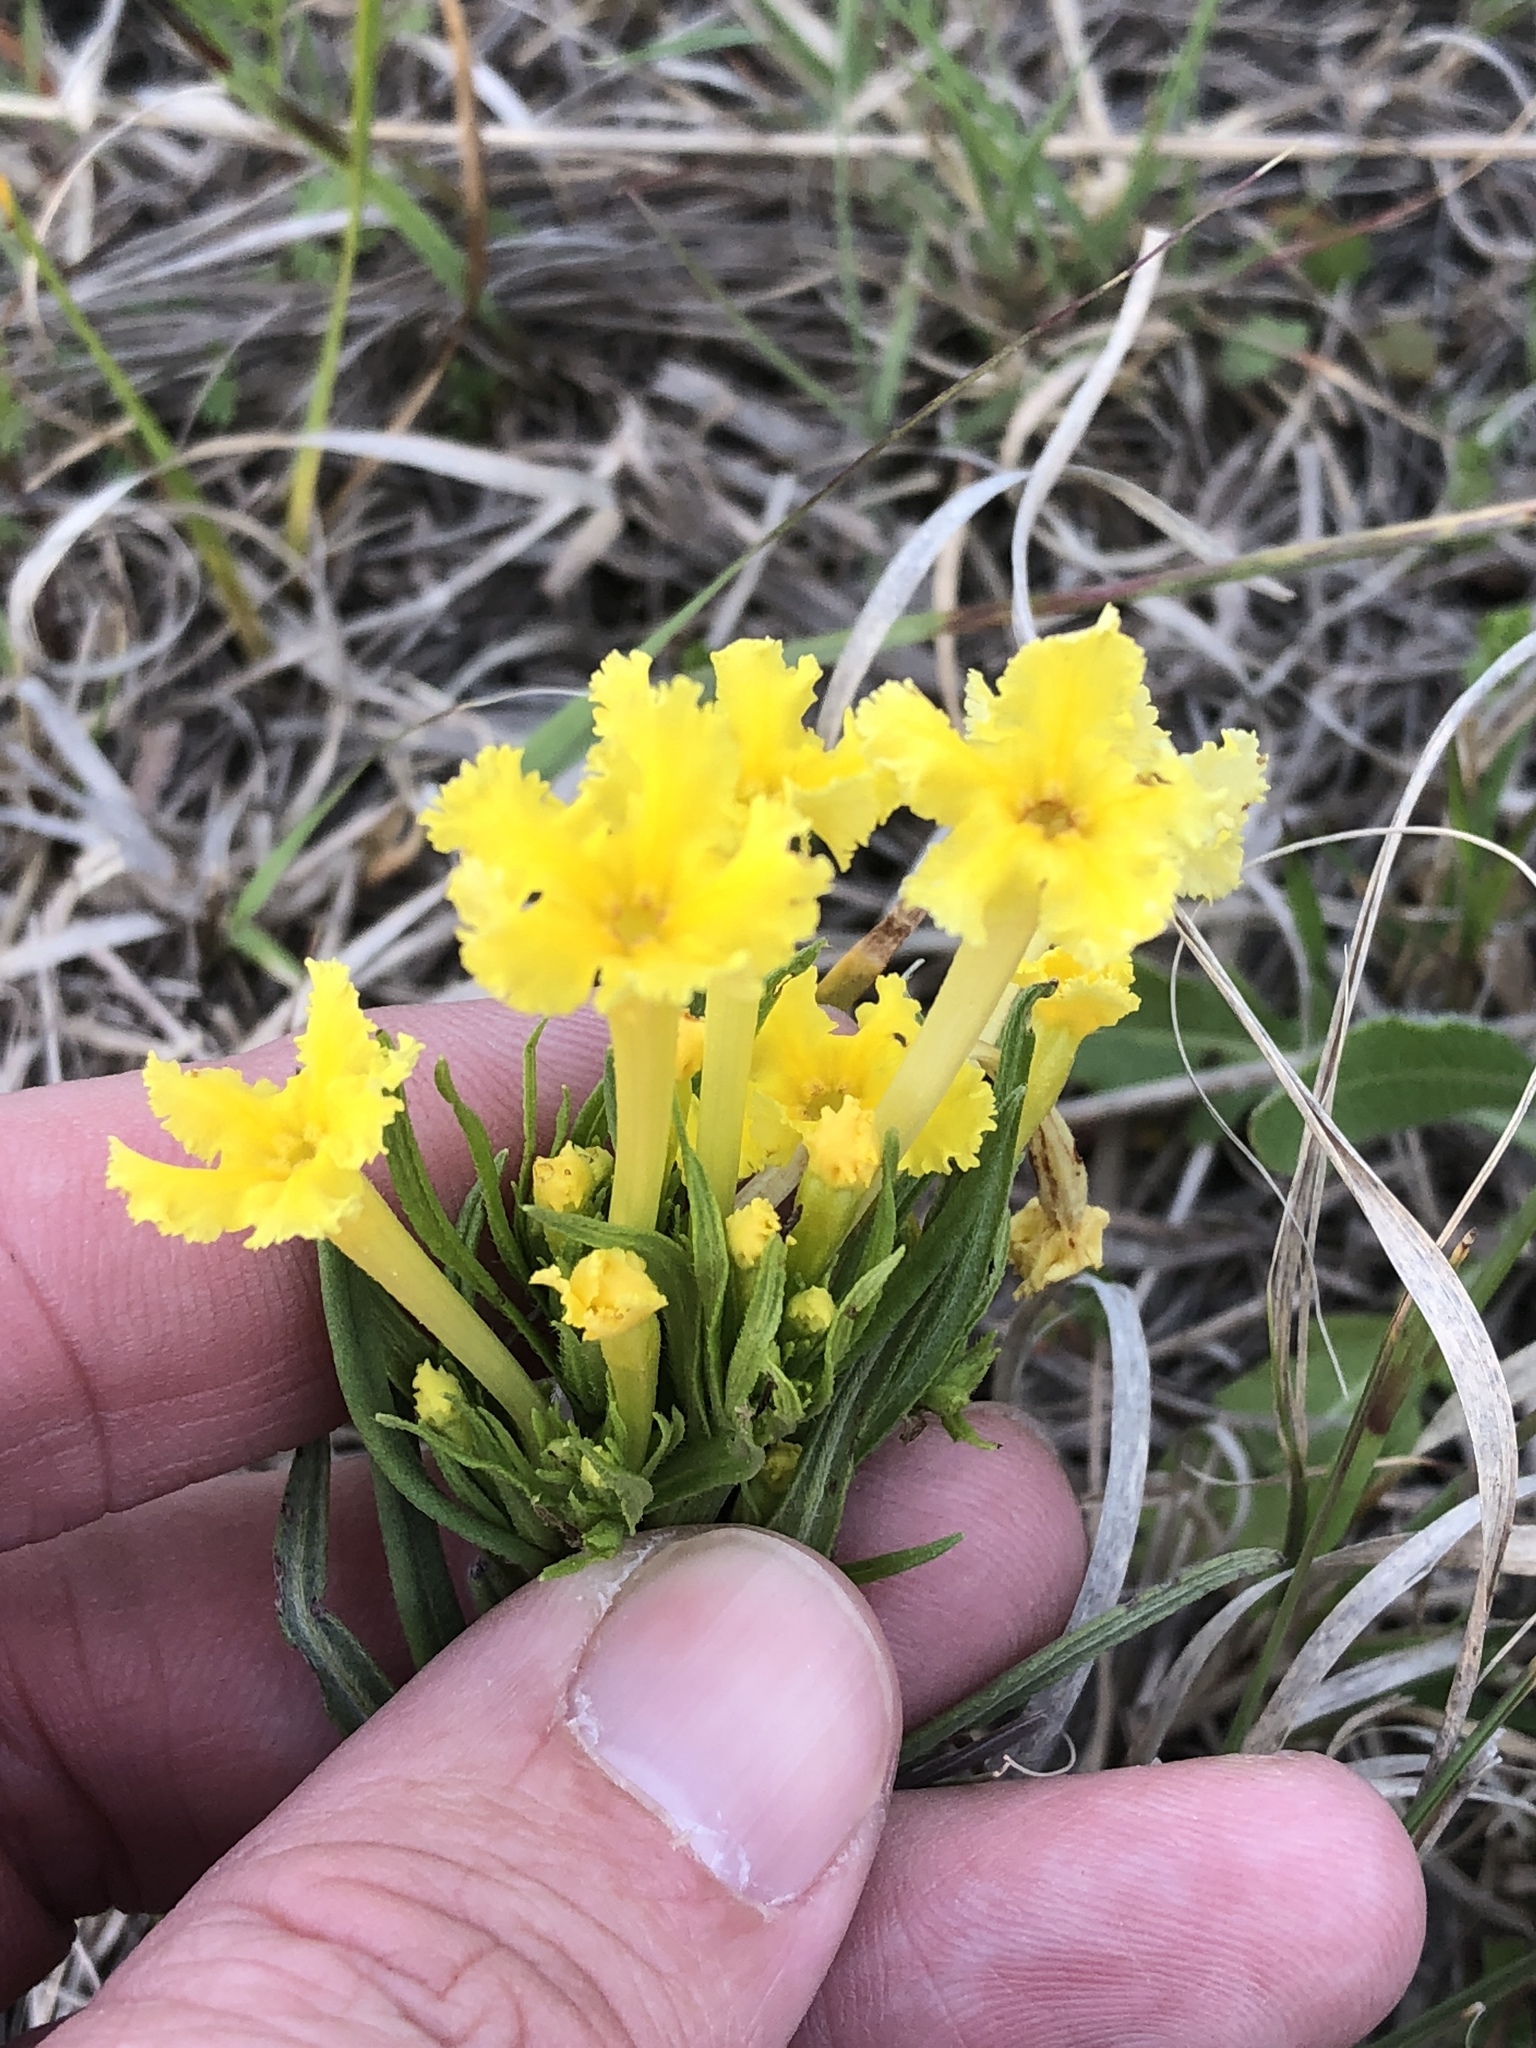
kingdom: Plantae
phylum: Tracheophyta
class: Magnoliopsida
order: Boraginales
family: Boraginaceae
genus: Lithospermum
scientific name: Lithospermum incisum
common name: Fringed gromwell
